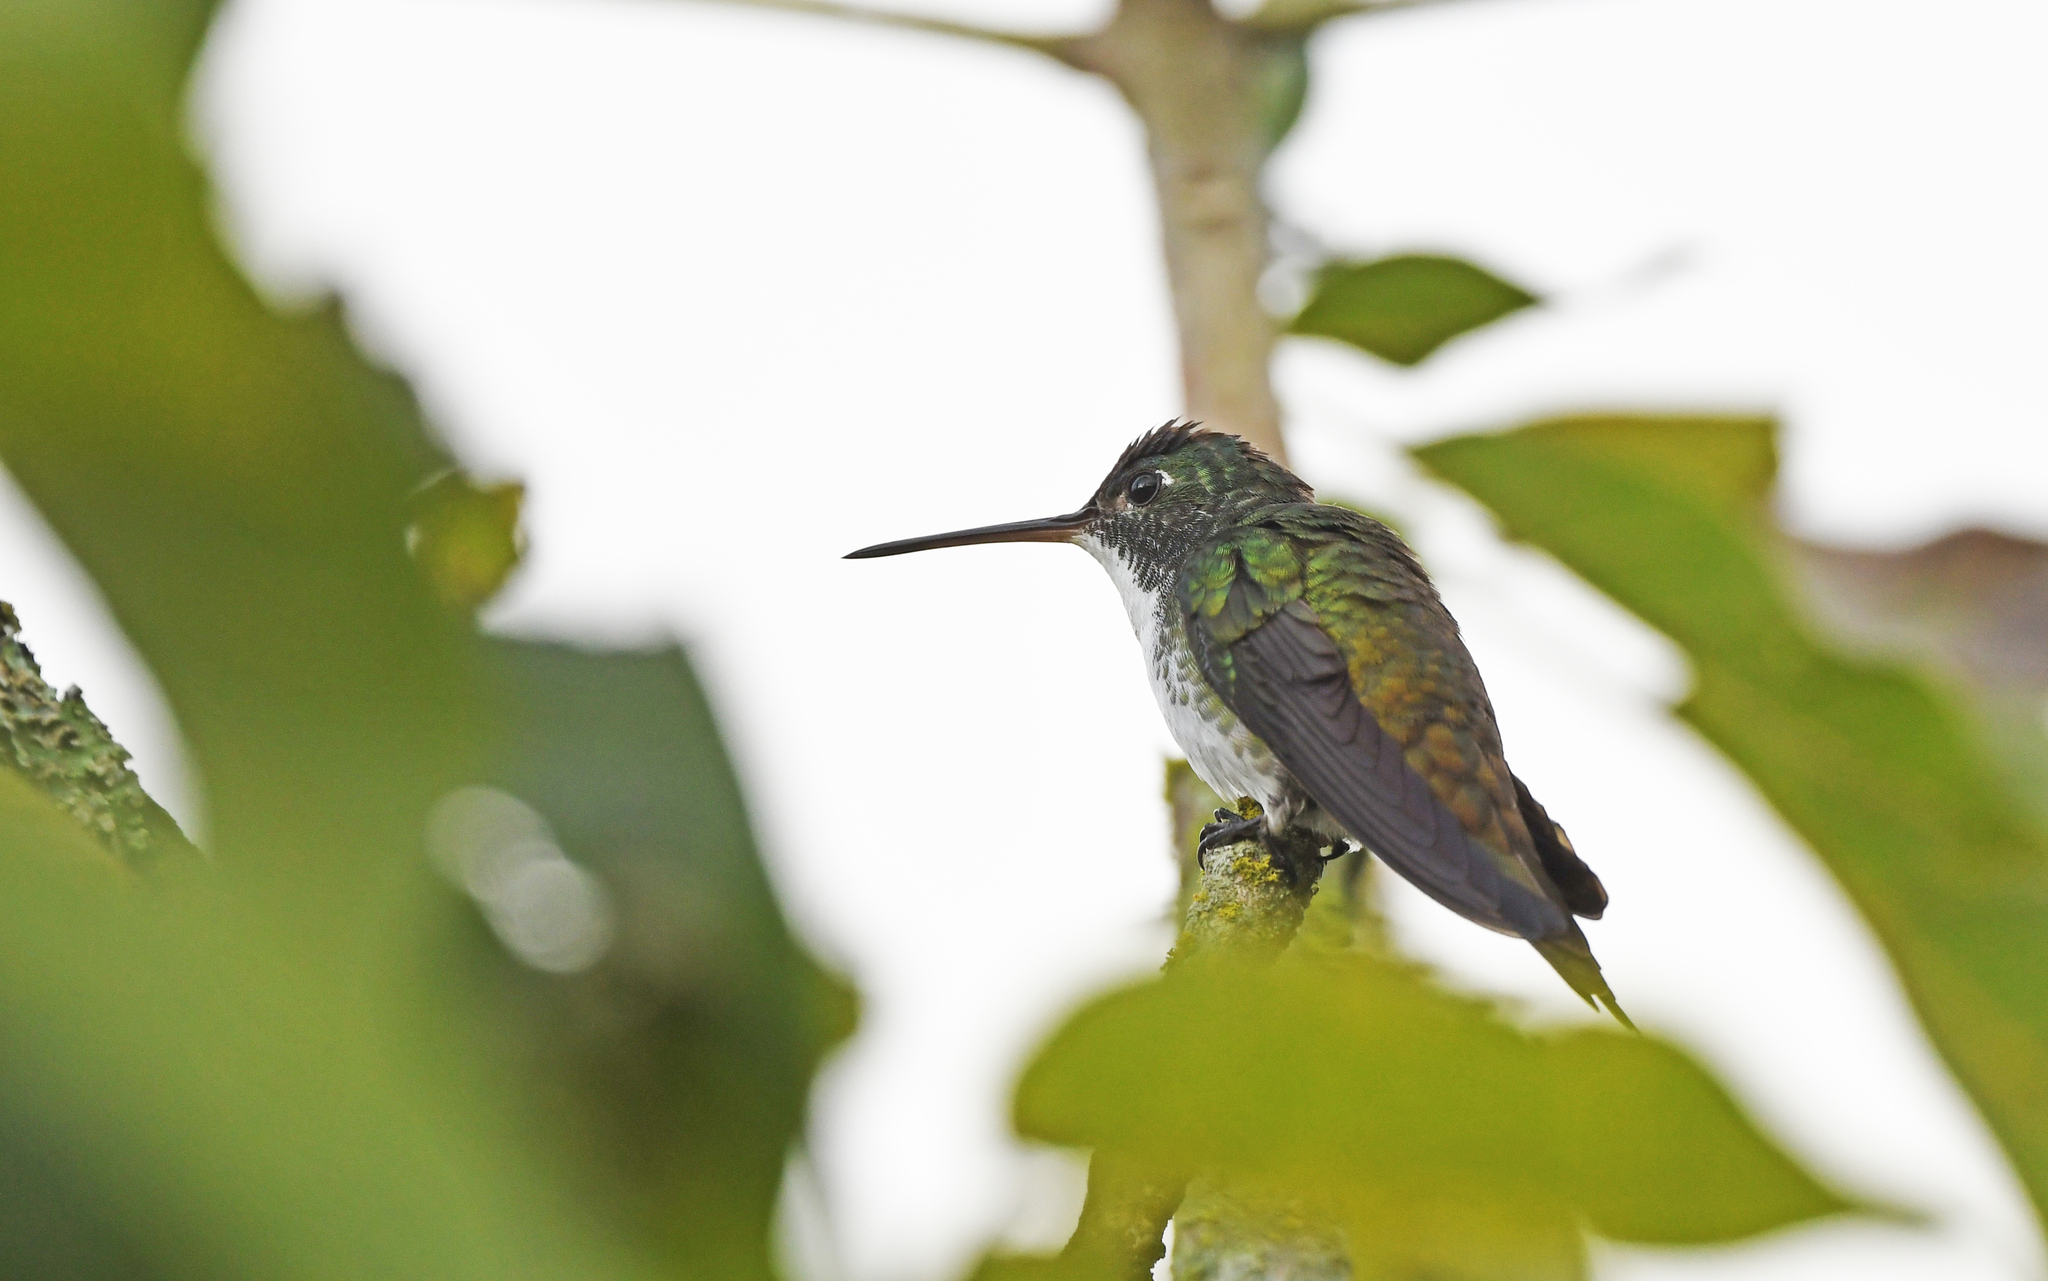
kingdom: Animalia
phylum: Chordata
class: Aves
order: Apodiformes
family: Trochilidae
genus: Uranomitra
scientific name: Uranomitra franciae
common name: Andean emerald
